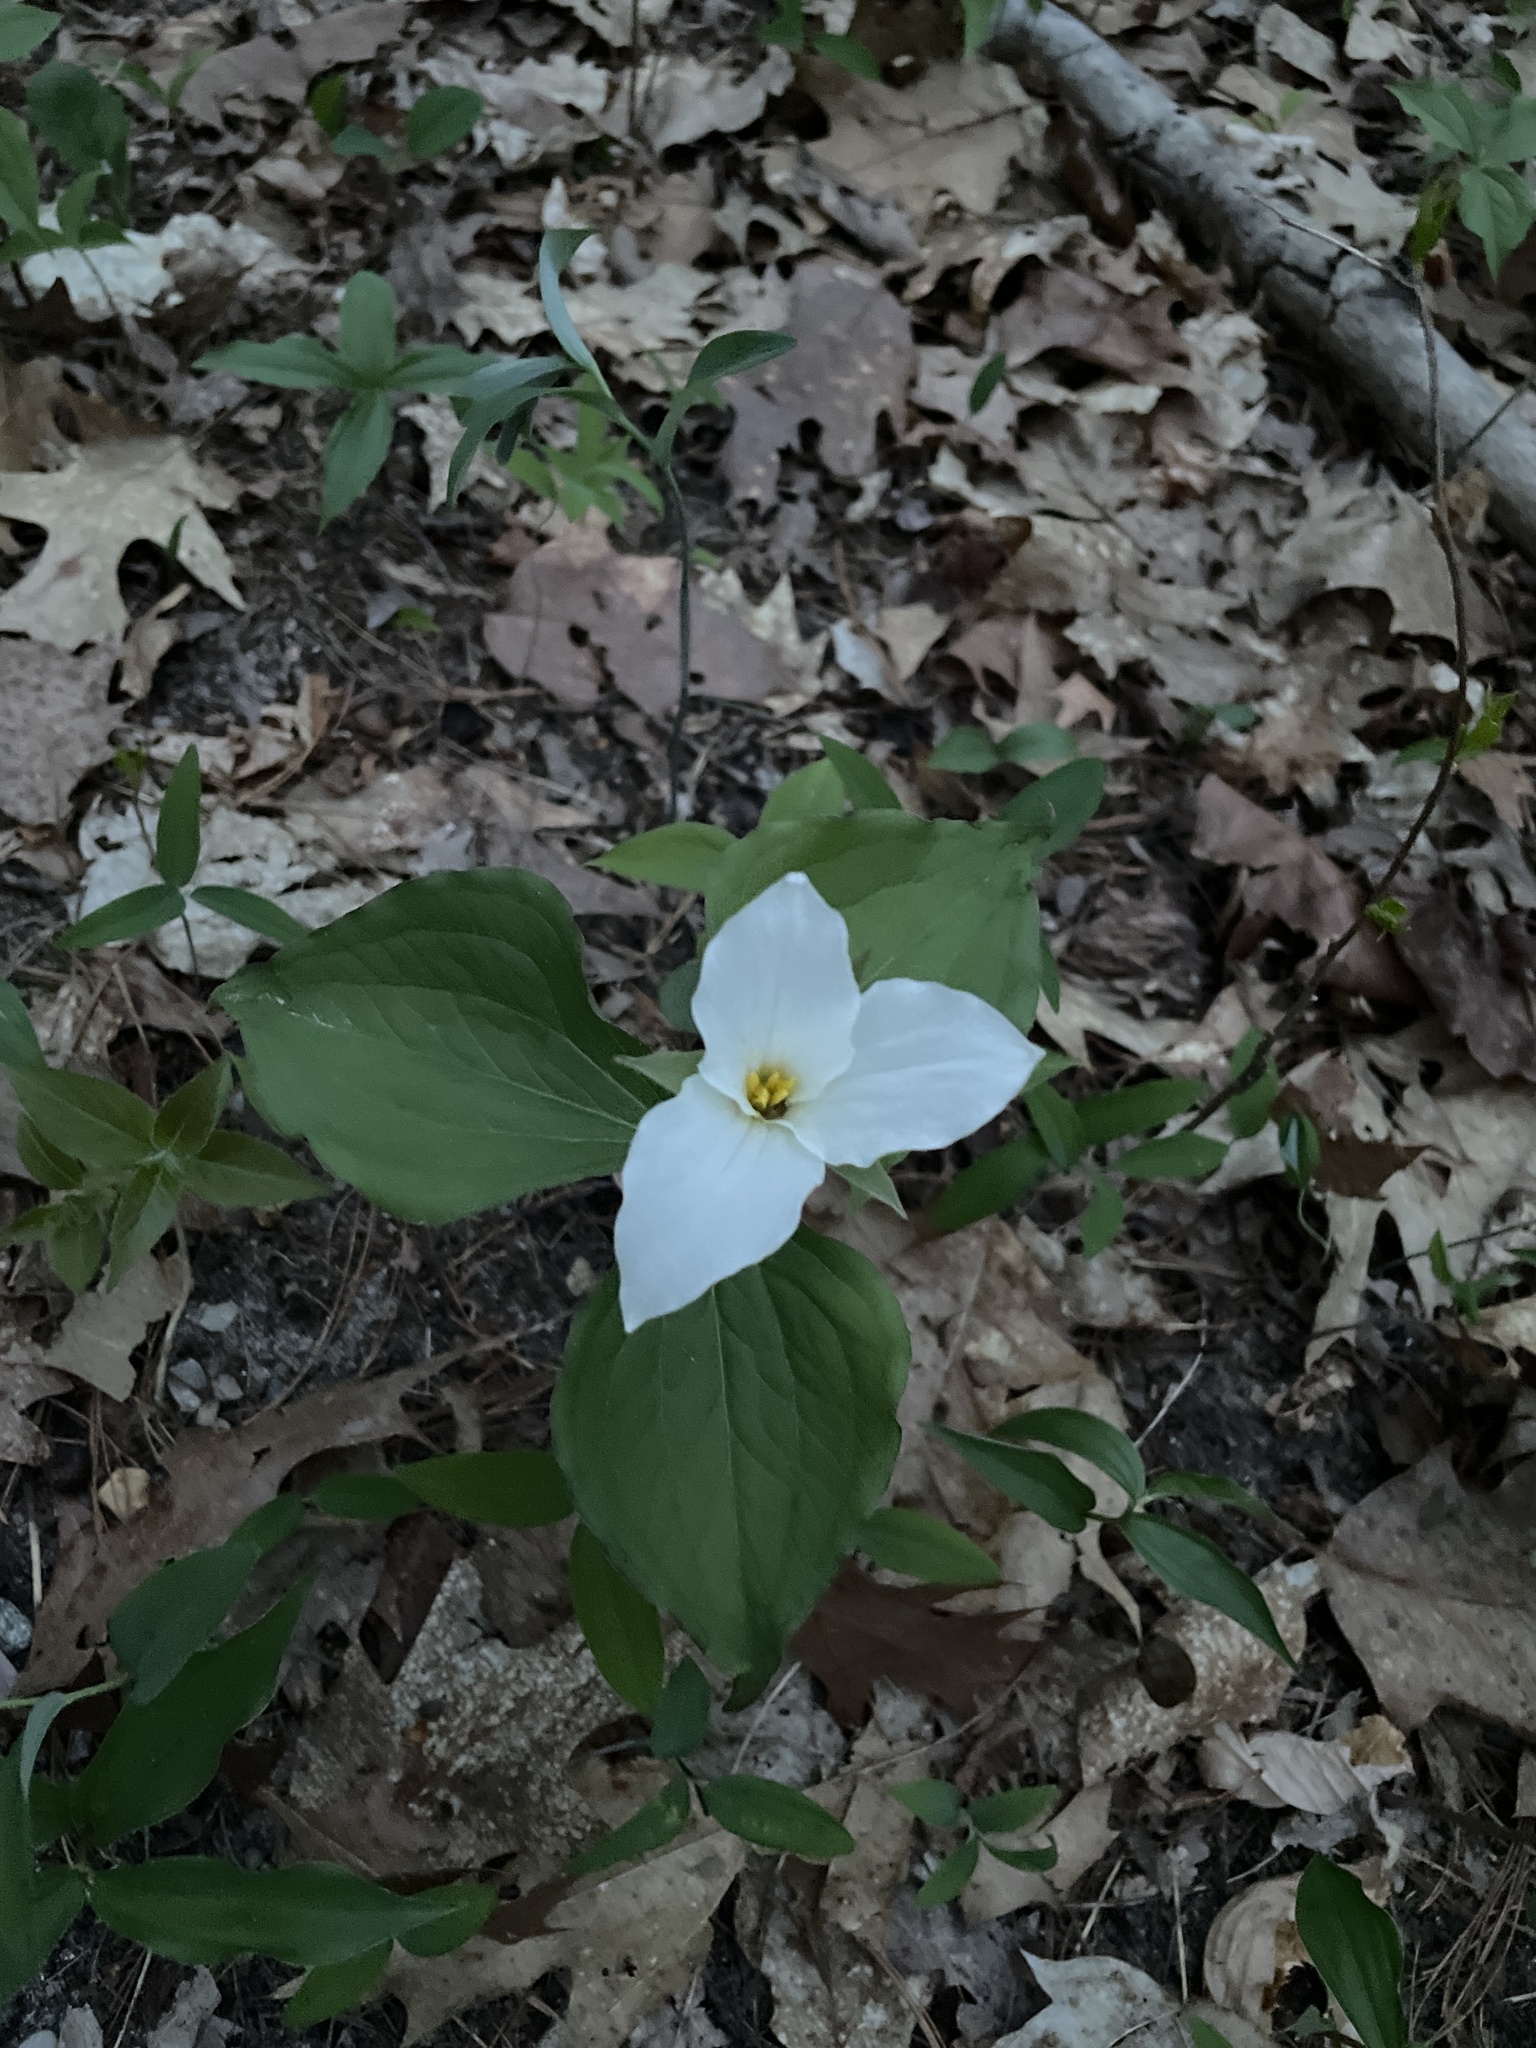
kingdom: Plantae
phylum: Tracheophyta
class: Liliopsida
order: Liliales
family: Melanthiaceae
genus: Trillium
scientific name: Trillium grandiflorum
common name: Great white trillium
